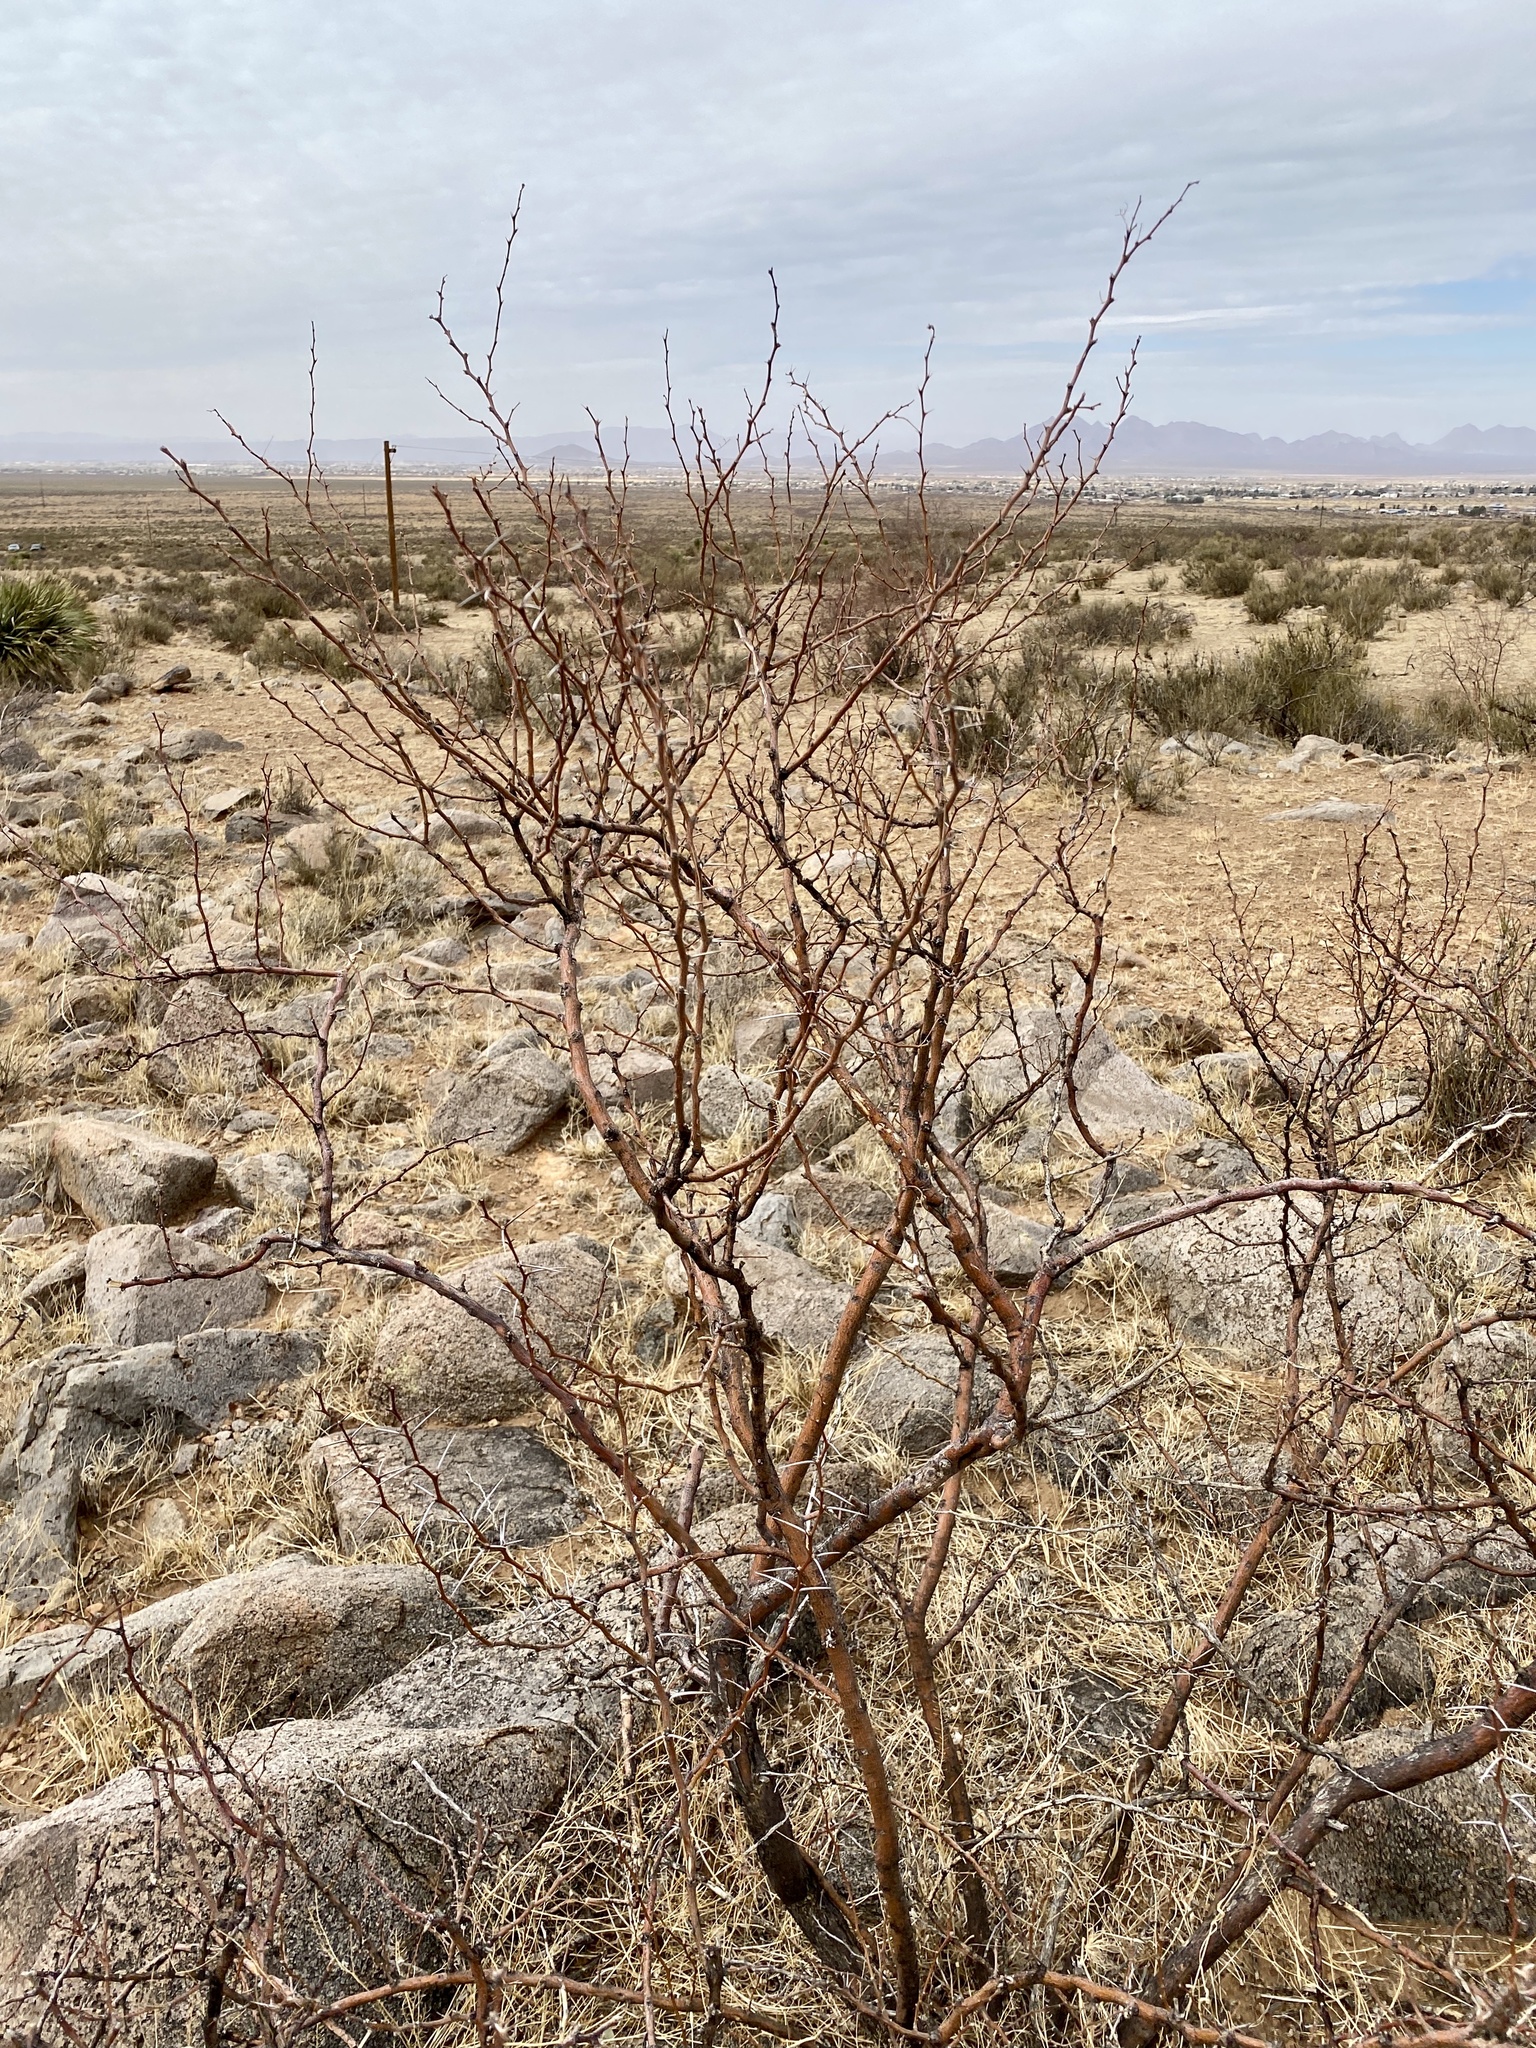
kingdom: Plantae
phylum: Tracheophyta
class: Magnoliopsida
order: Fabales
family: Fabaceae
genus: Vachellia
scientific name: Vachellia constricta
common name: Mescat acacia
